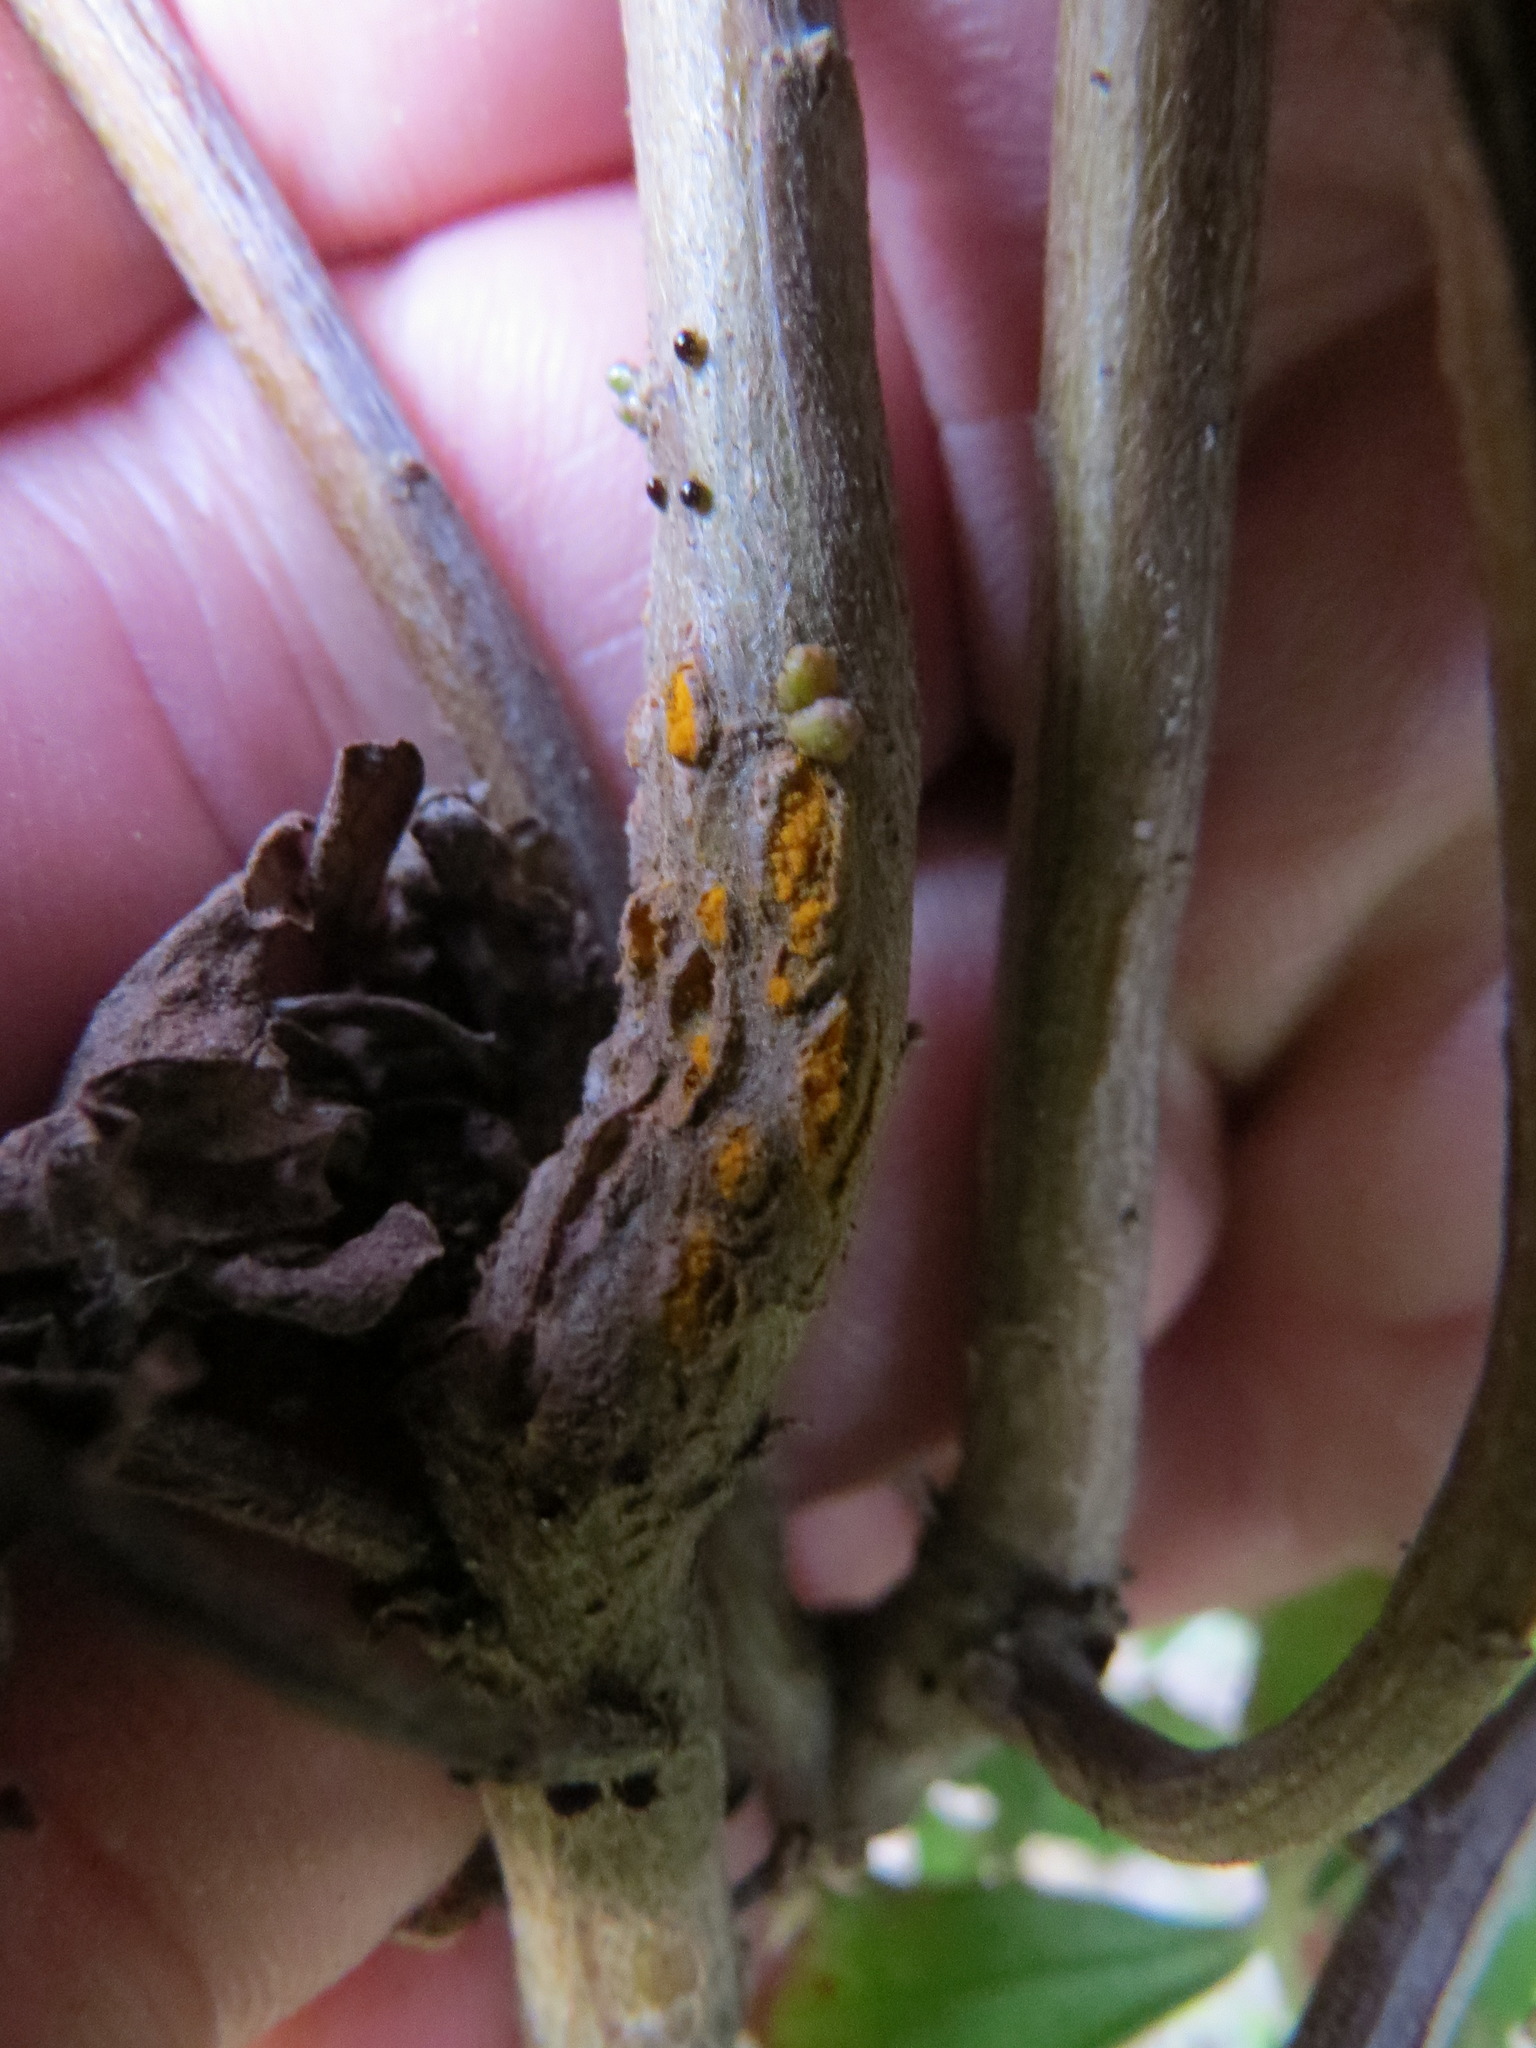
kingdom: Fungi
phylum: Basidiomycota
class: Pucciniomycetes
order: Pucciniales
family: Pucciniaceae
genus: Eriosporangium
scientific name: Eriosporangium evadens
